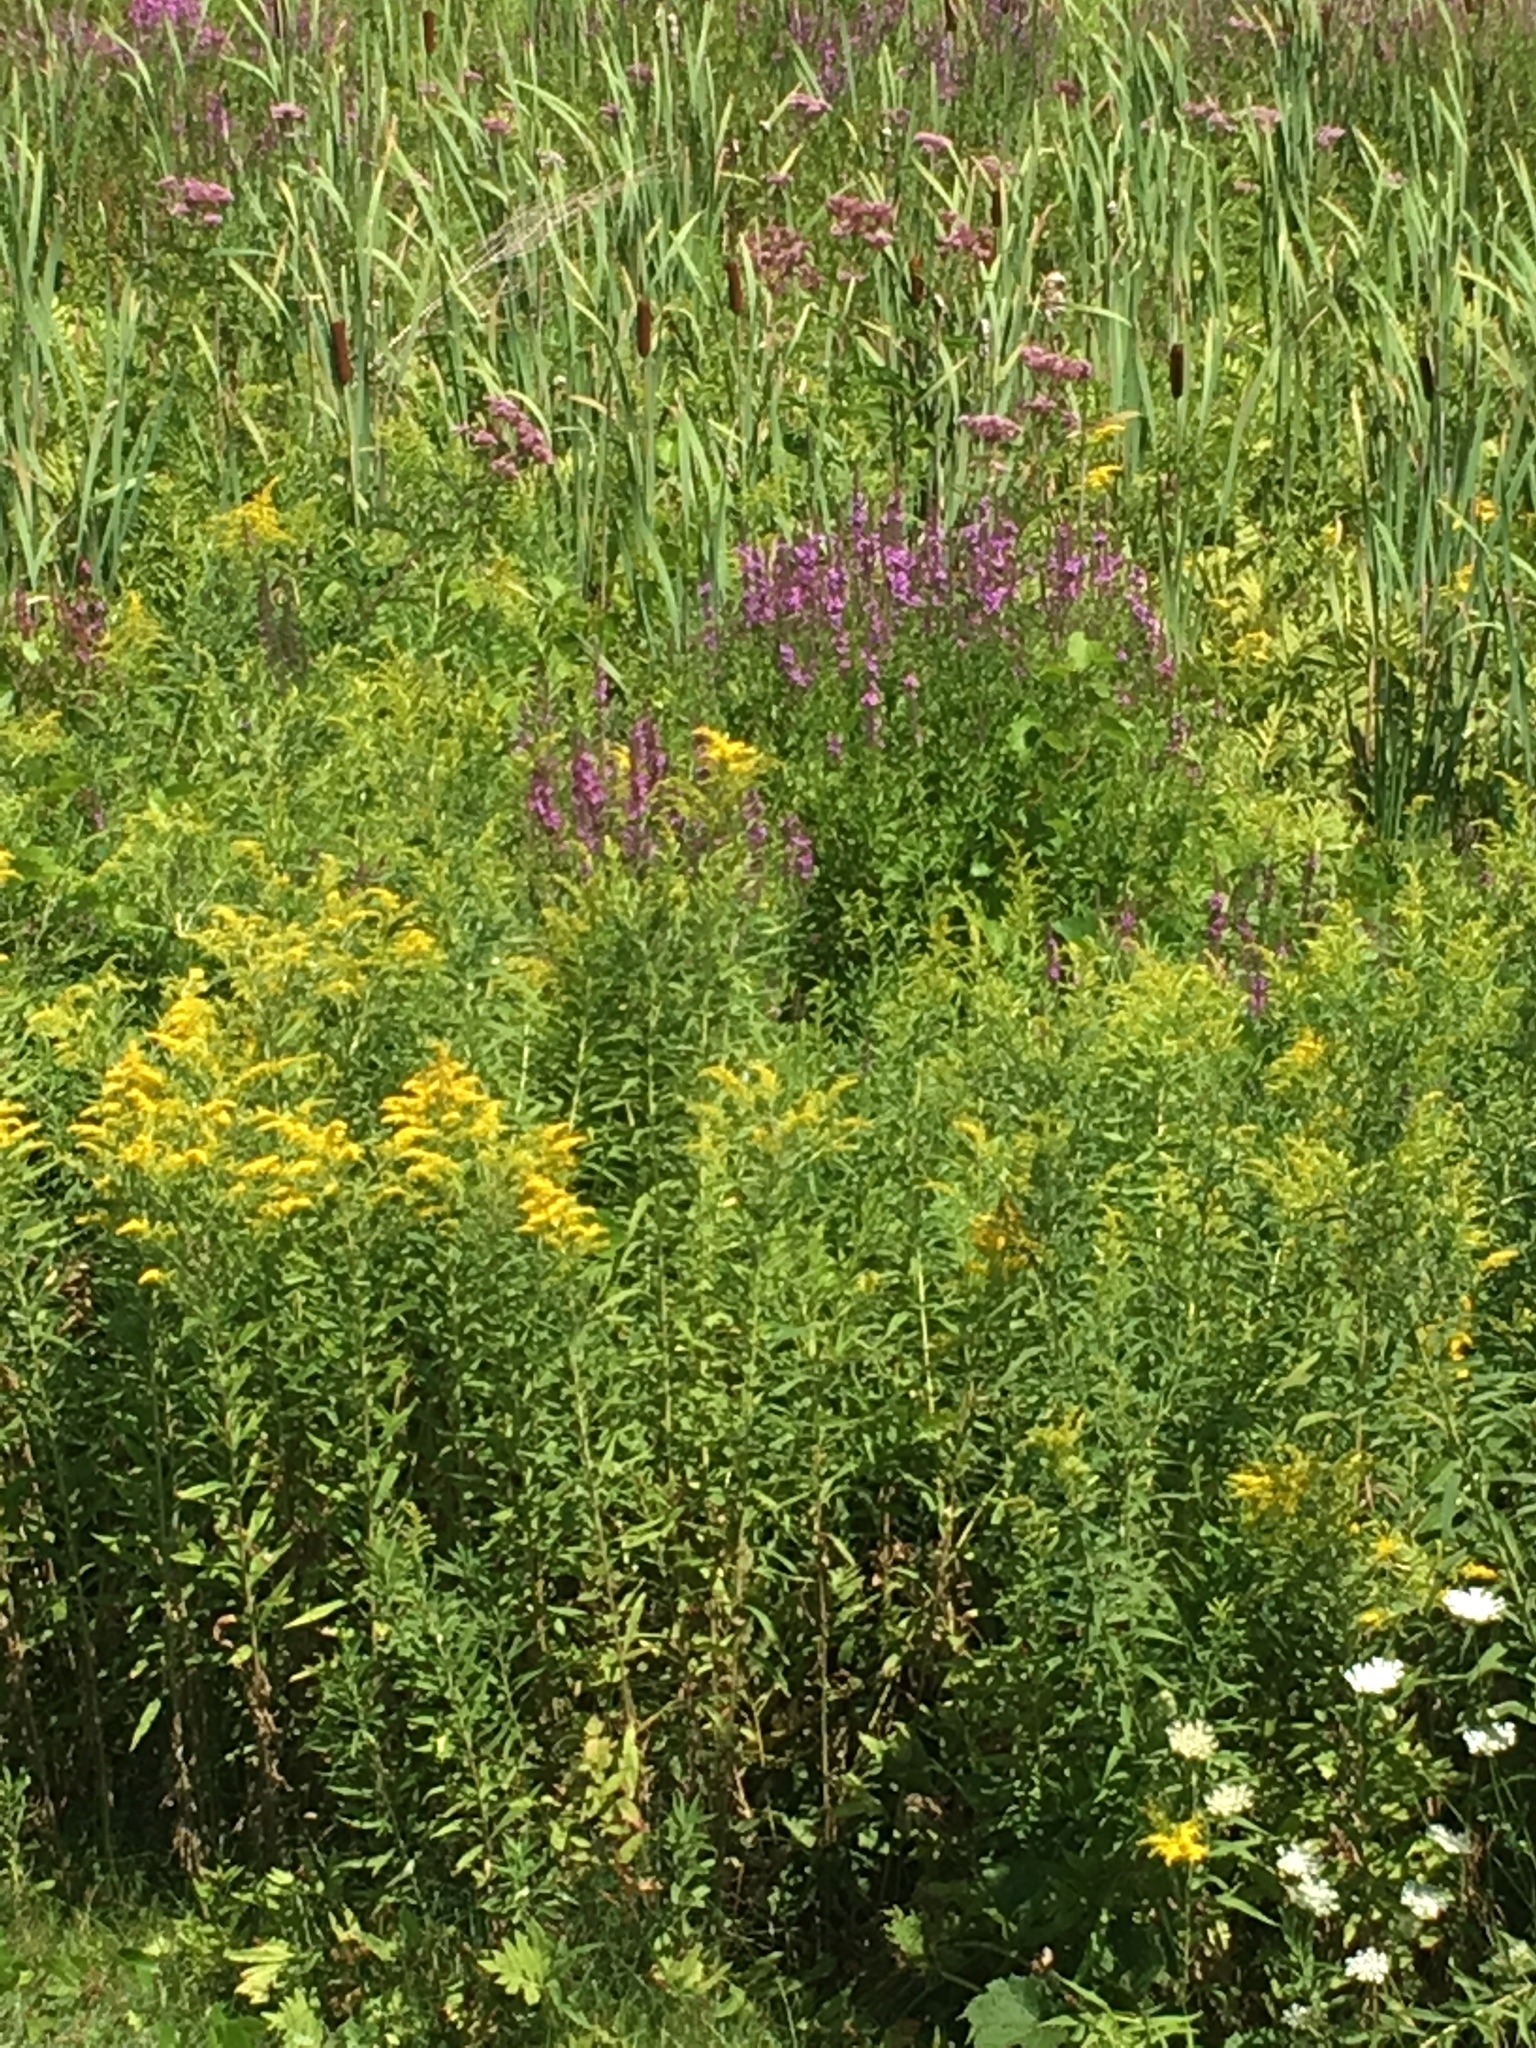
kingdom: Plantae
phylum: Tracheophyta
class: Magnoliopsida
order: Myrtales
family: Lythraceae
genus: Lythrum
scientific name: Lythrum salicaria
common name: Purple loosestrife
